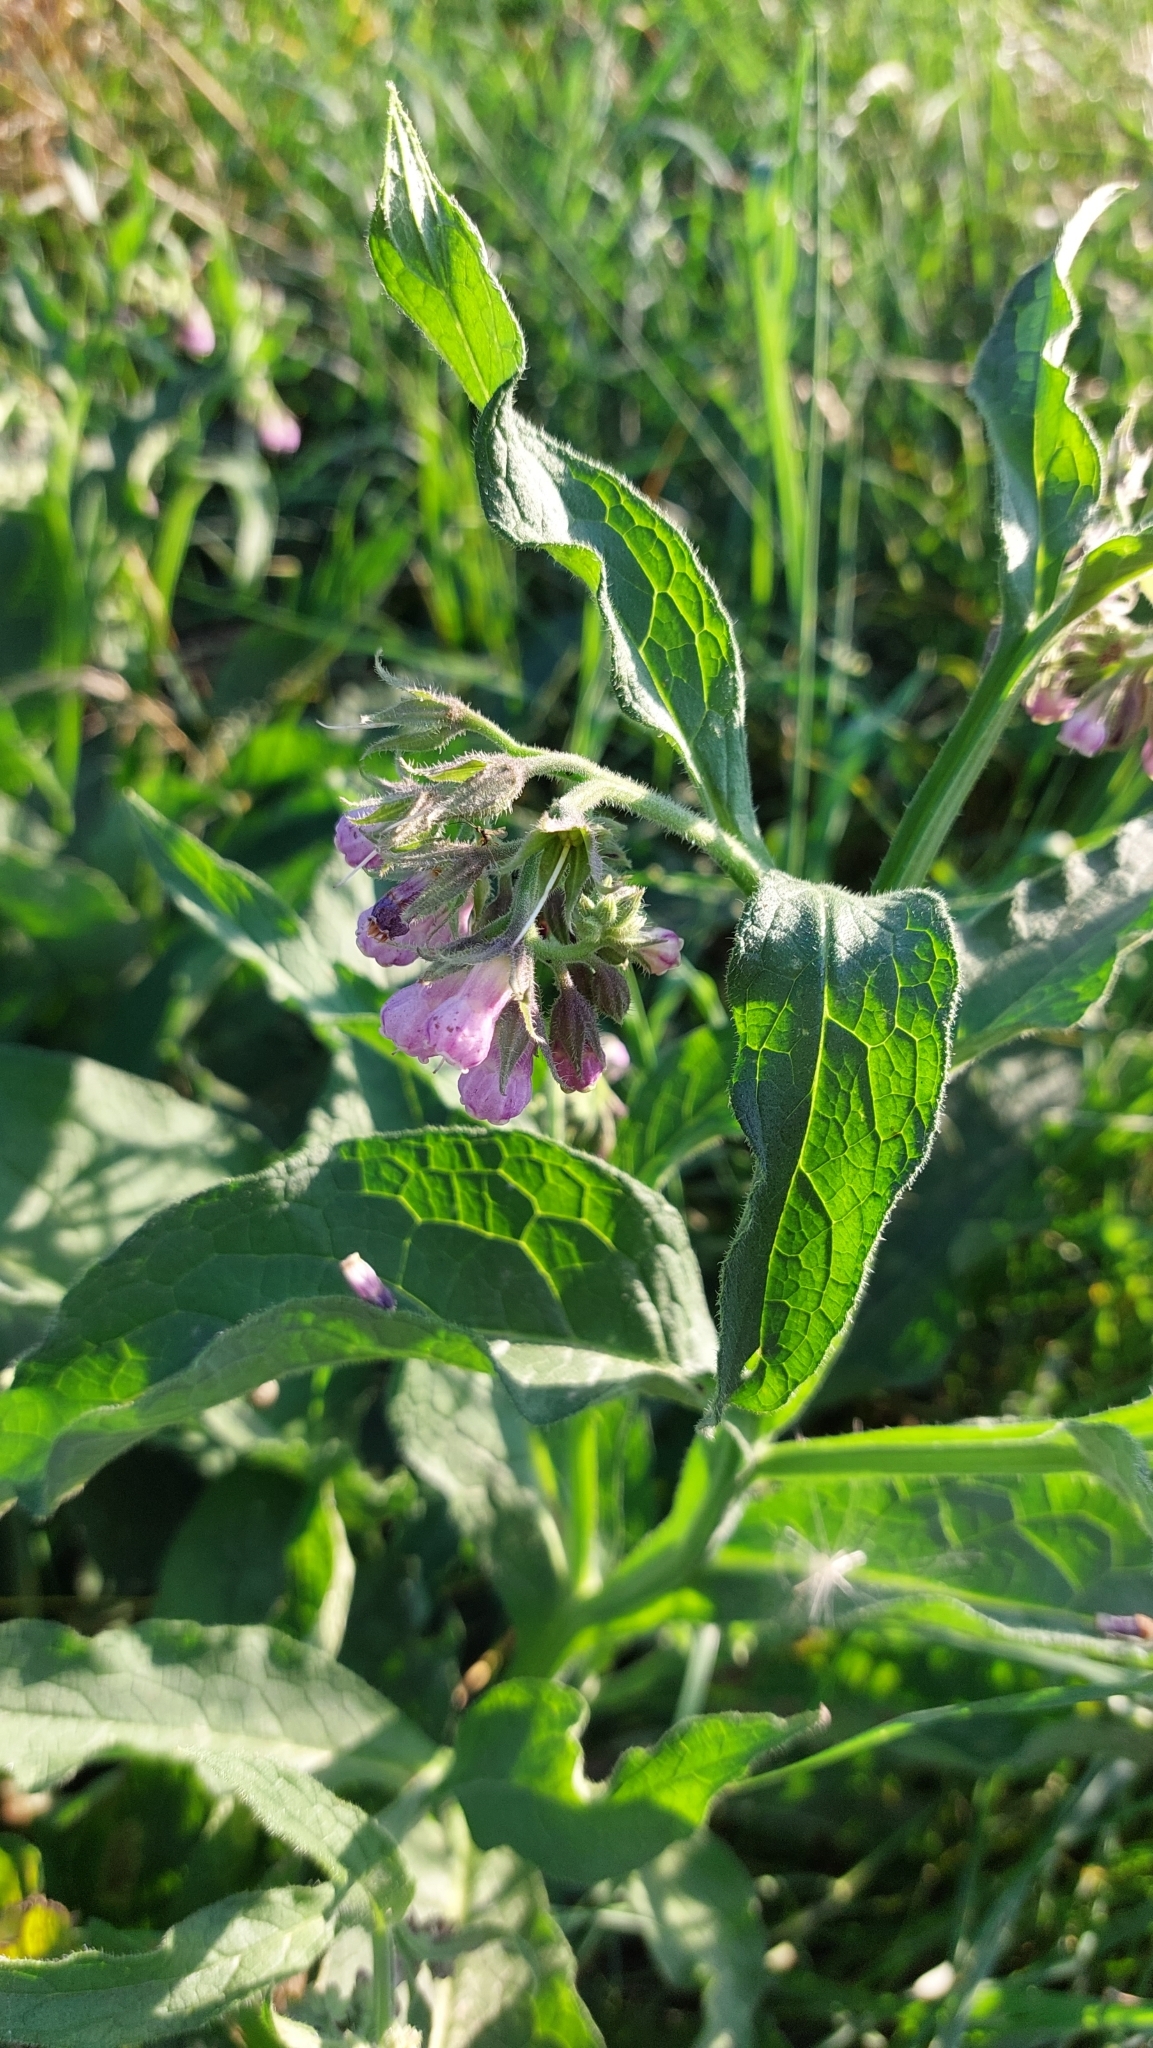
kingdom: Plantae
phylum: Tracheophyta
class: Magnoliopsida
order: Boraginales
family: Boraginaceae
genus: Symphytum
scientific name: Symphytum officinale
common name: Common comfrey
